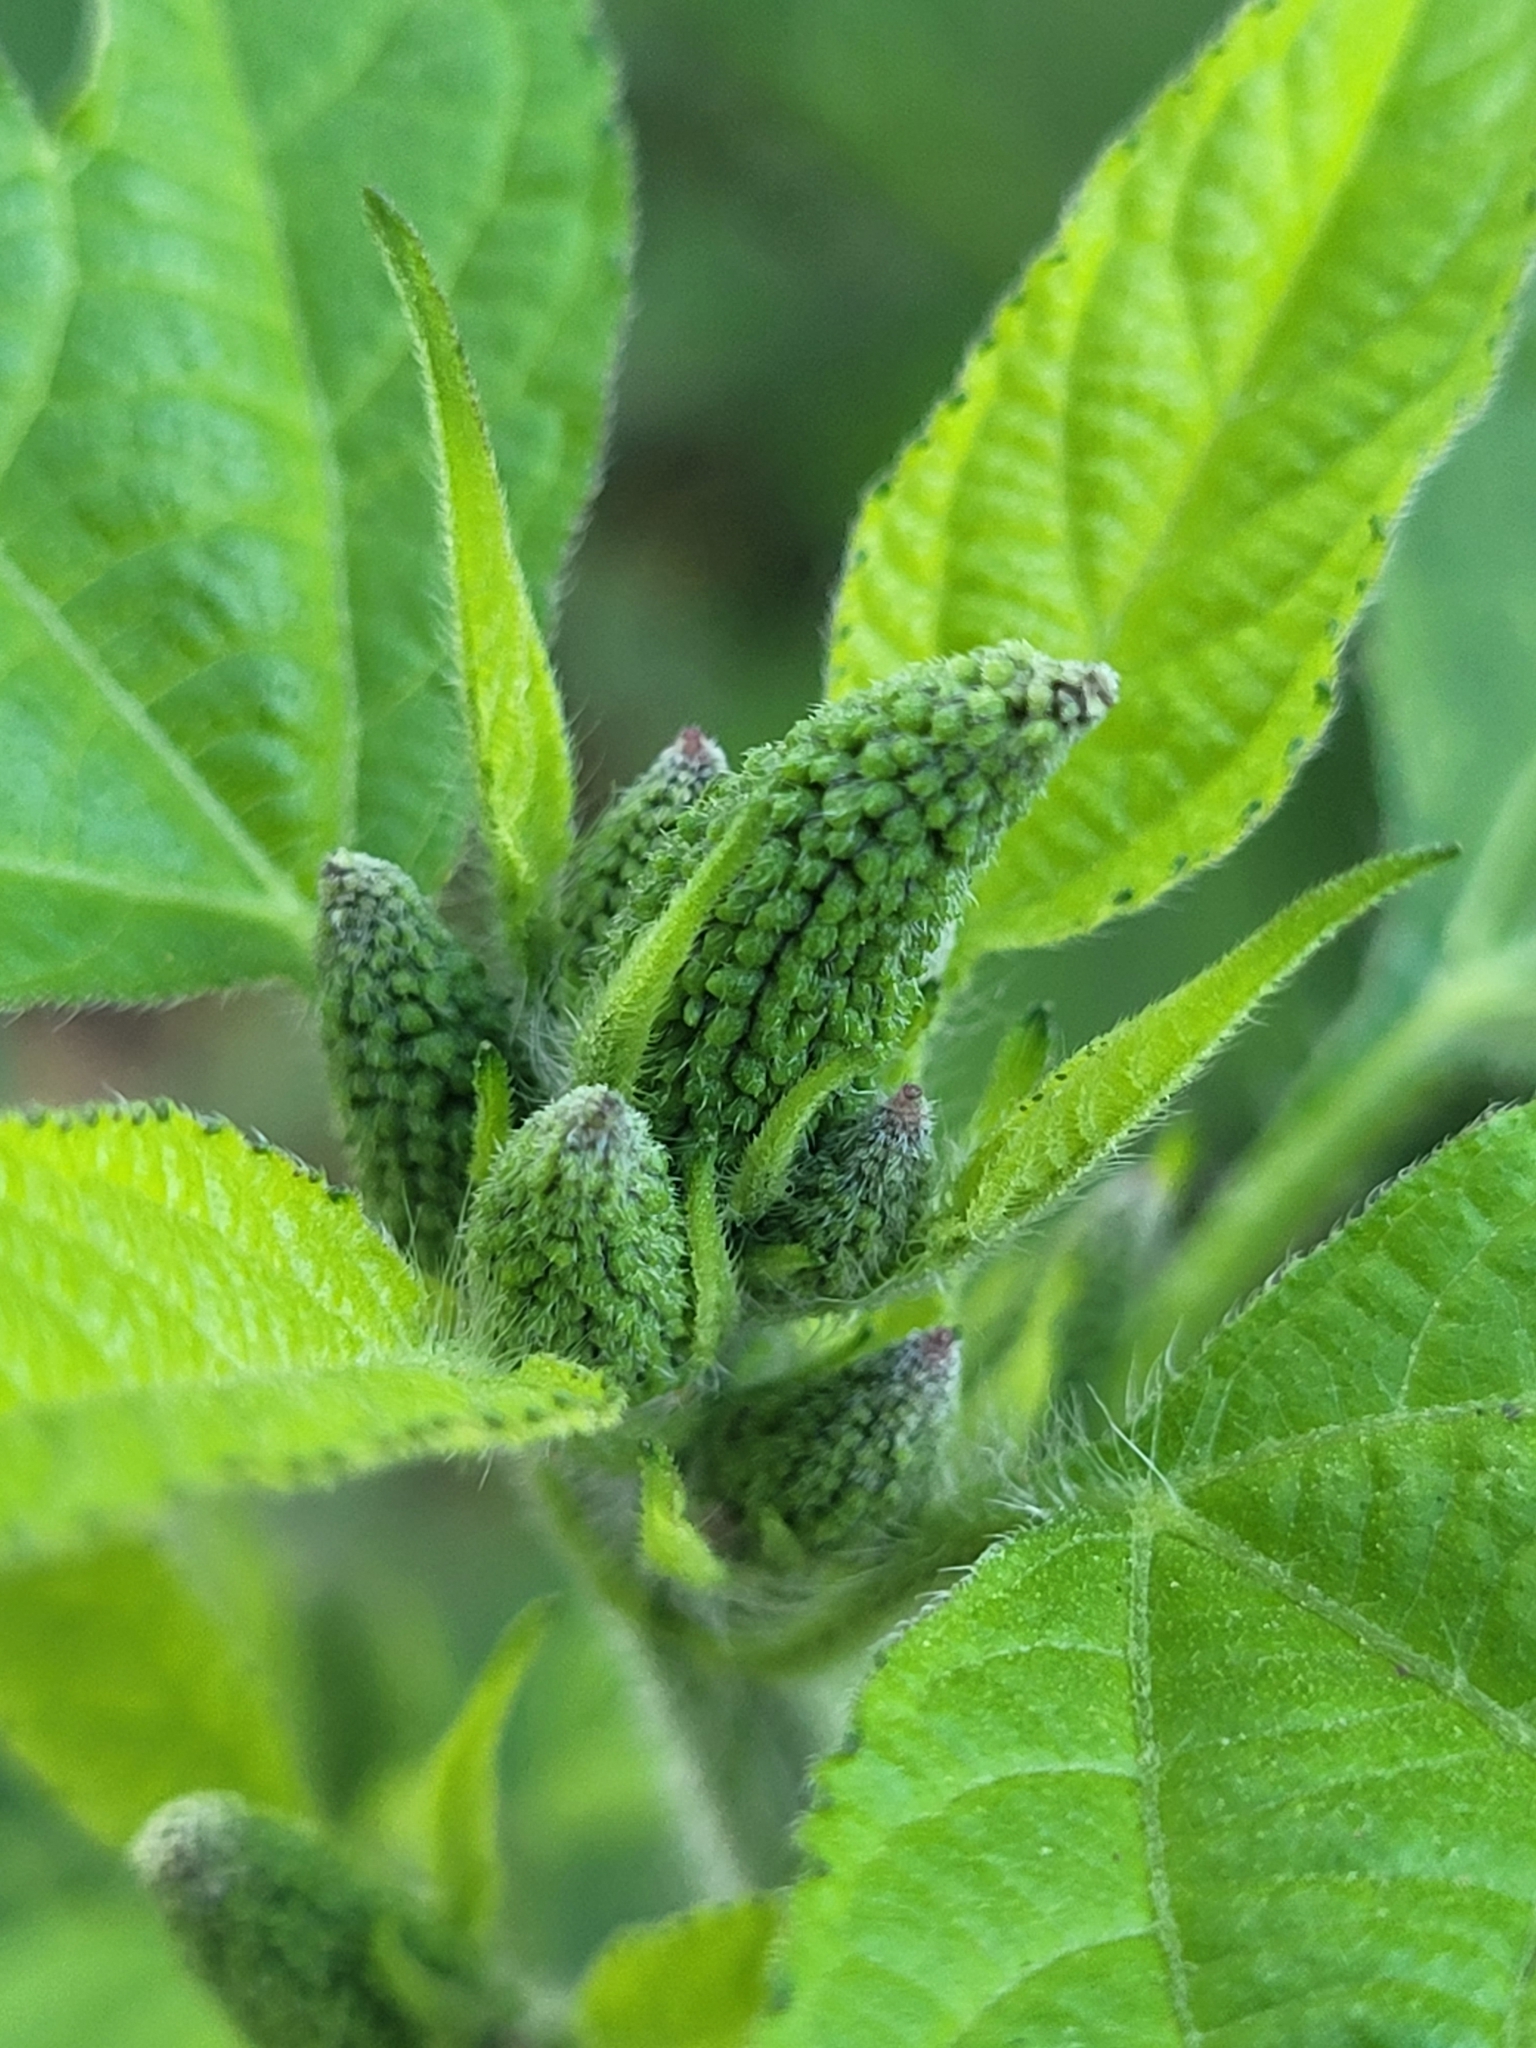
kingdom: Plantae
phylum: Tracheophyta
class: Magnoliopsida
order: Asterales
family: Asteraceae
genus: Ambrosia
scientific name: Ambrosia trifida
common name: Giant ragweed
